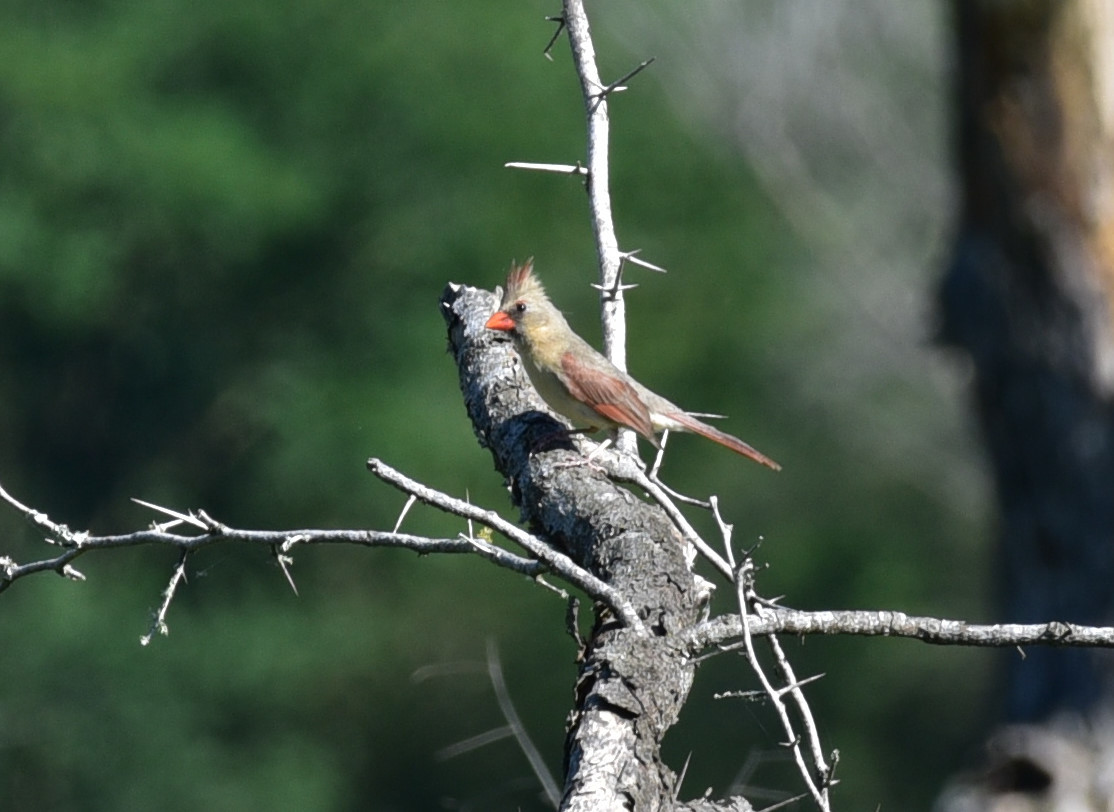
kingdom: Animalia
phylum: Chordata
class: Aves
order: Passeriformes
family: Cardinalidae
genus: Cardinalis
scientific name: Cardinalis cardinalis
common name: Northern cardinal
